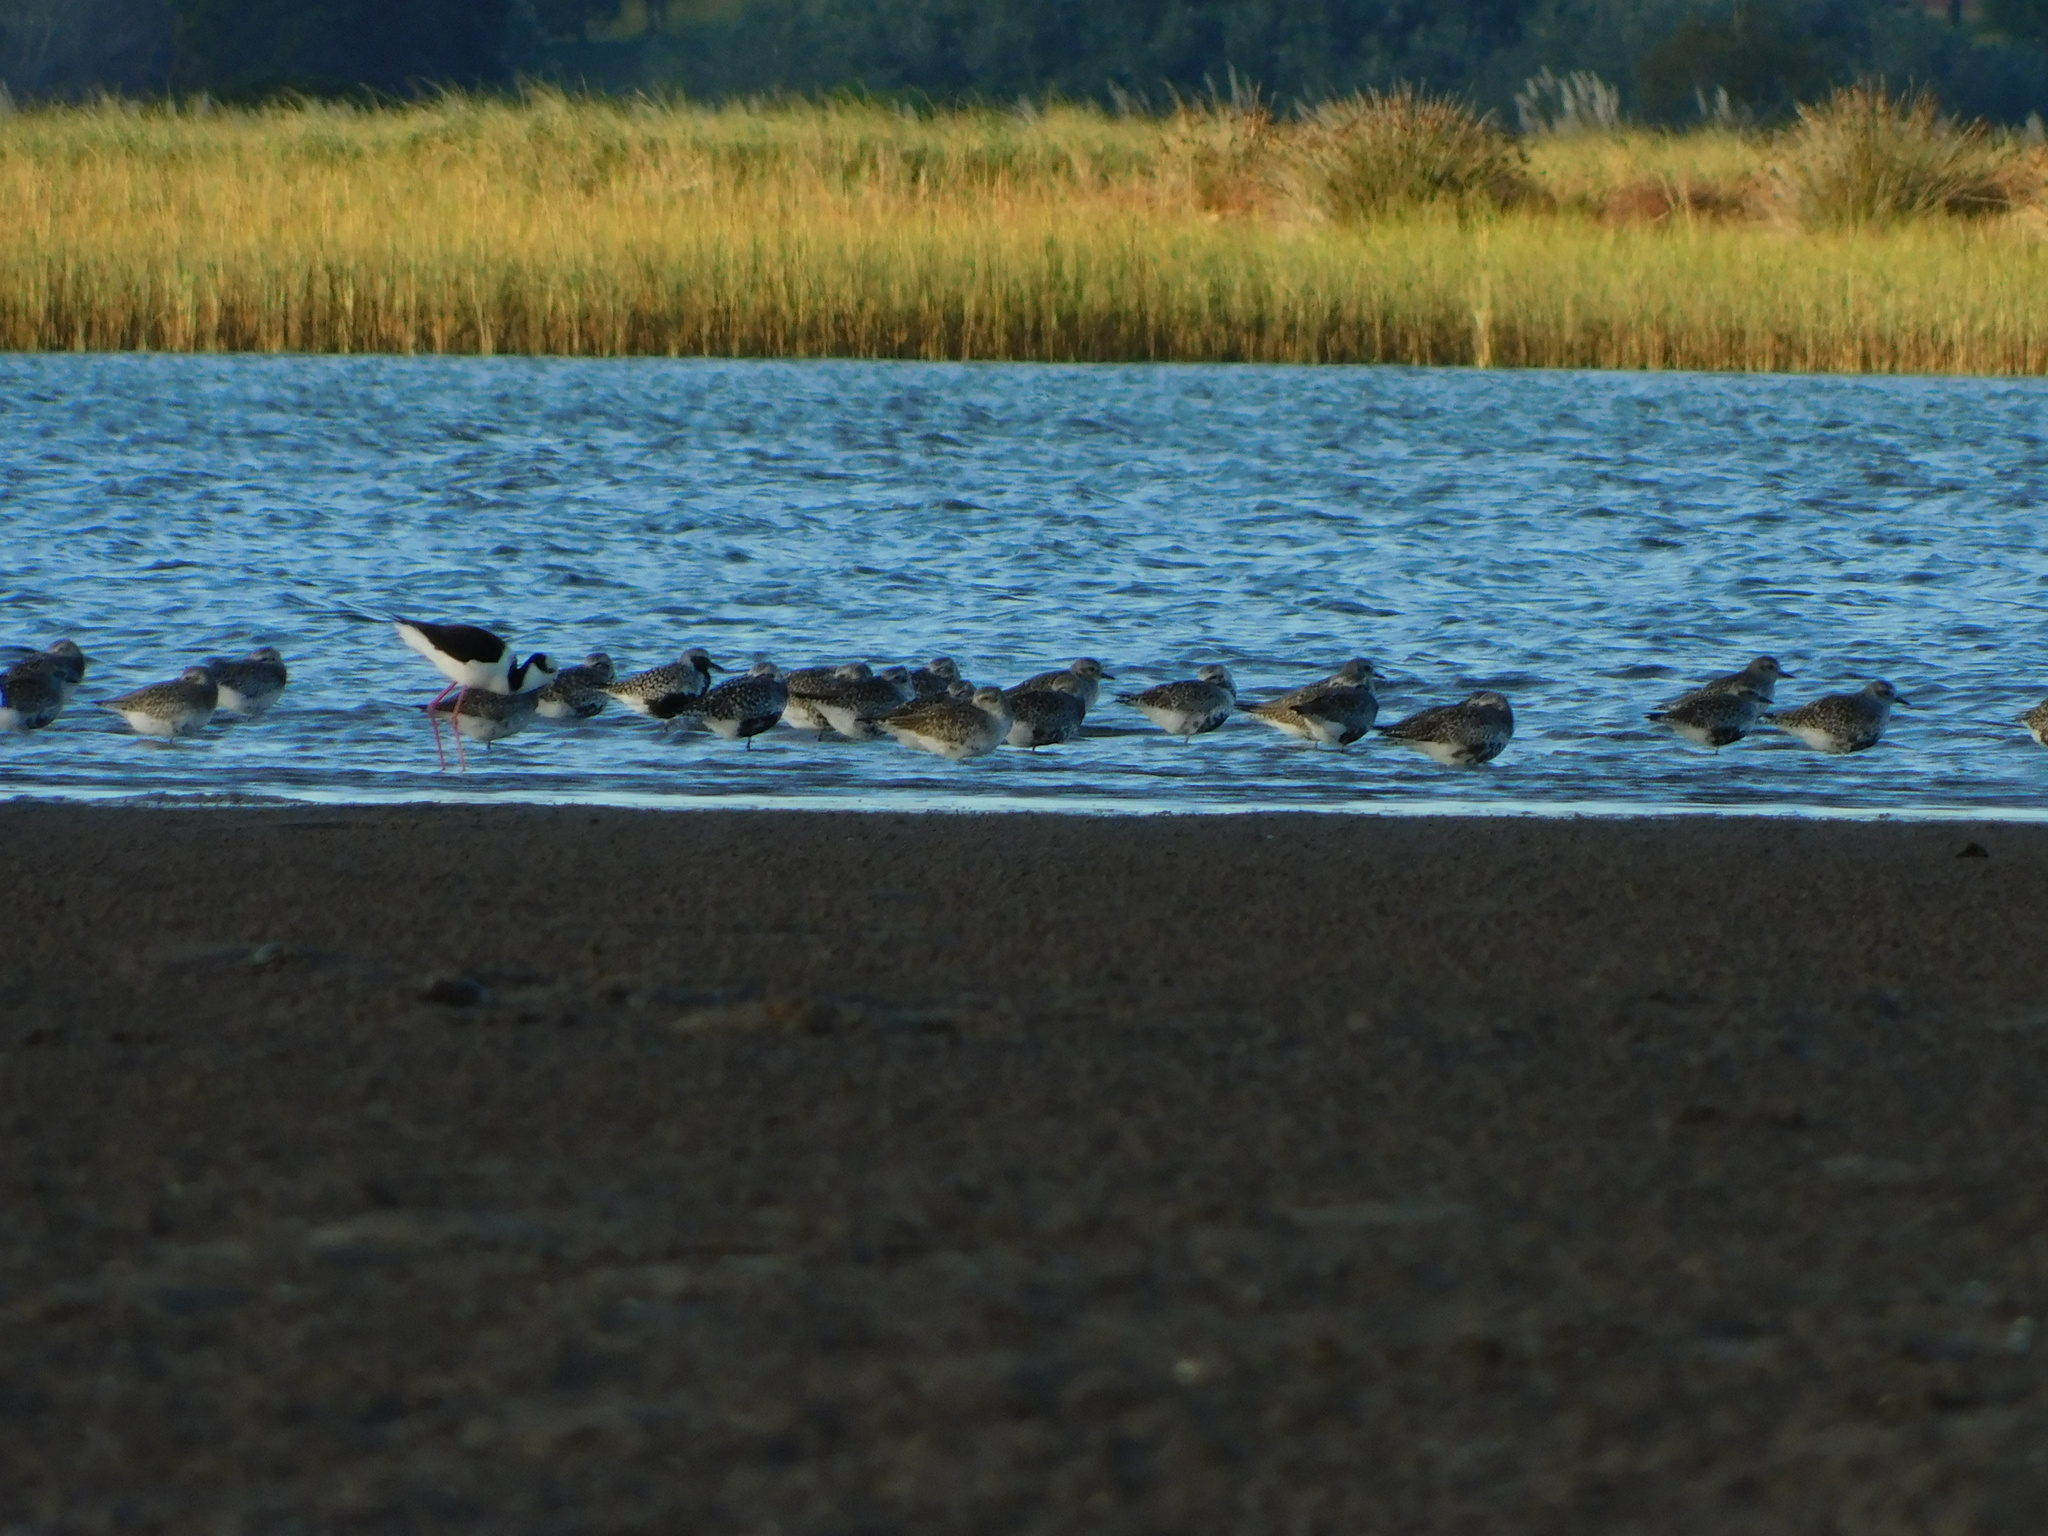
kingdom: Animalia
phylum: Chordata
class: Aves
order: Charadriiformes
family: Charadriidae
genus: Pluvialis
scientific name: Pluvialis squatarola
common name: Grey plover
